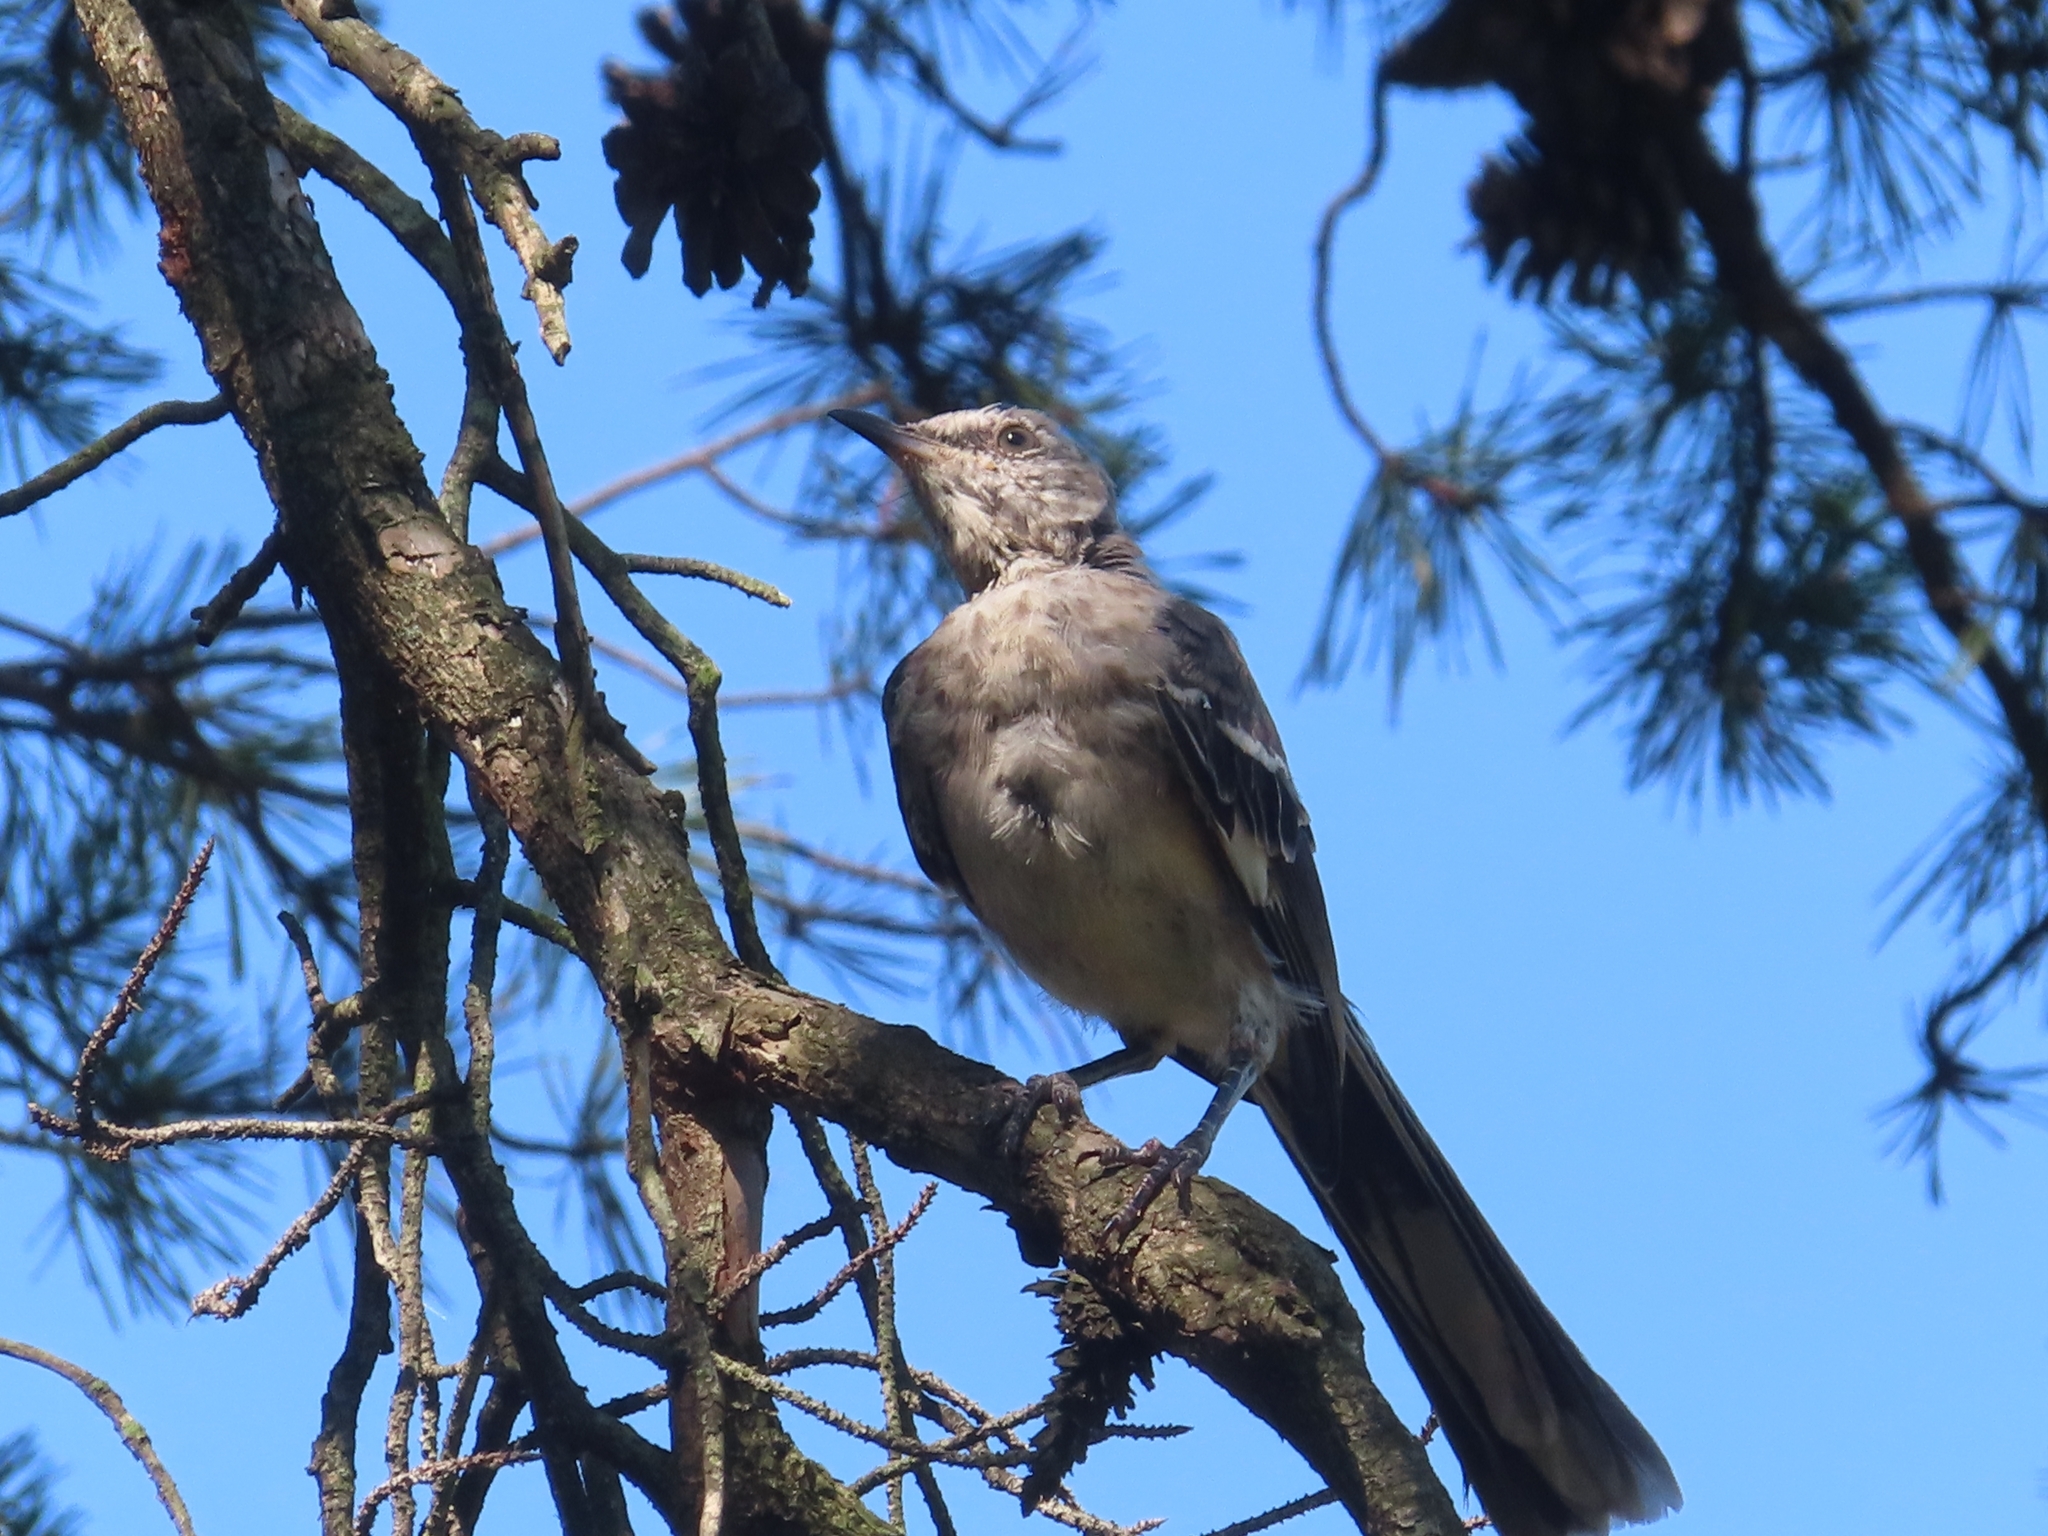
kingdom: Animalia
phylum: Chordata
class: Aves
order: Passeriformes
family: Mimidae
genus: Mimus
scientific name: Mimus polyglottos
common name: Northern mockingbird
